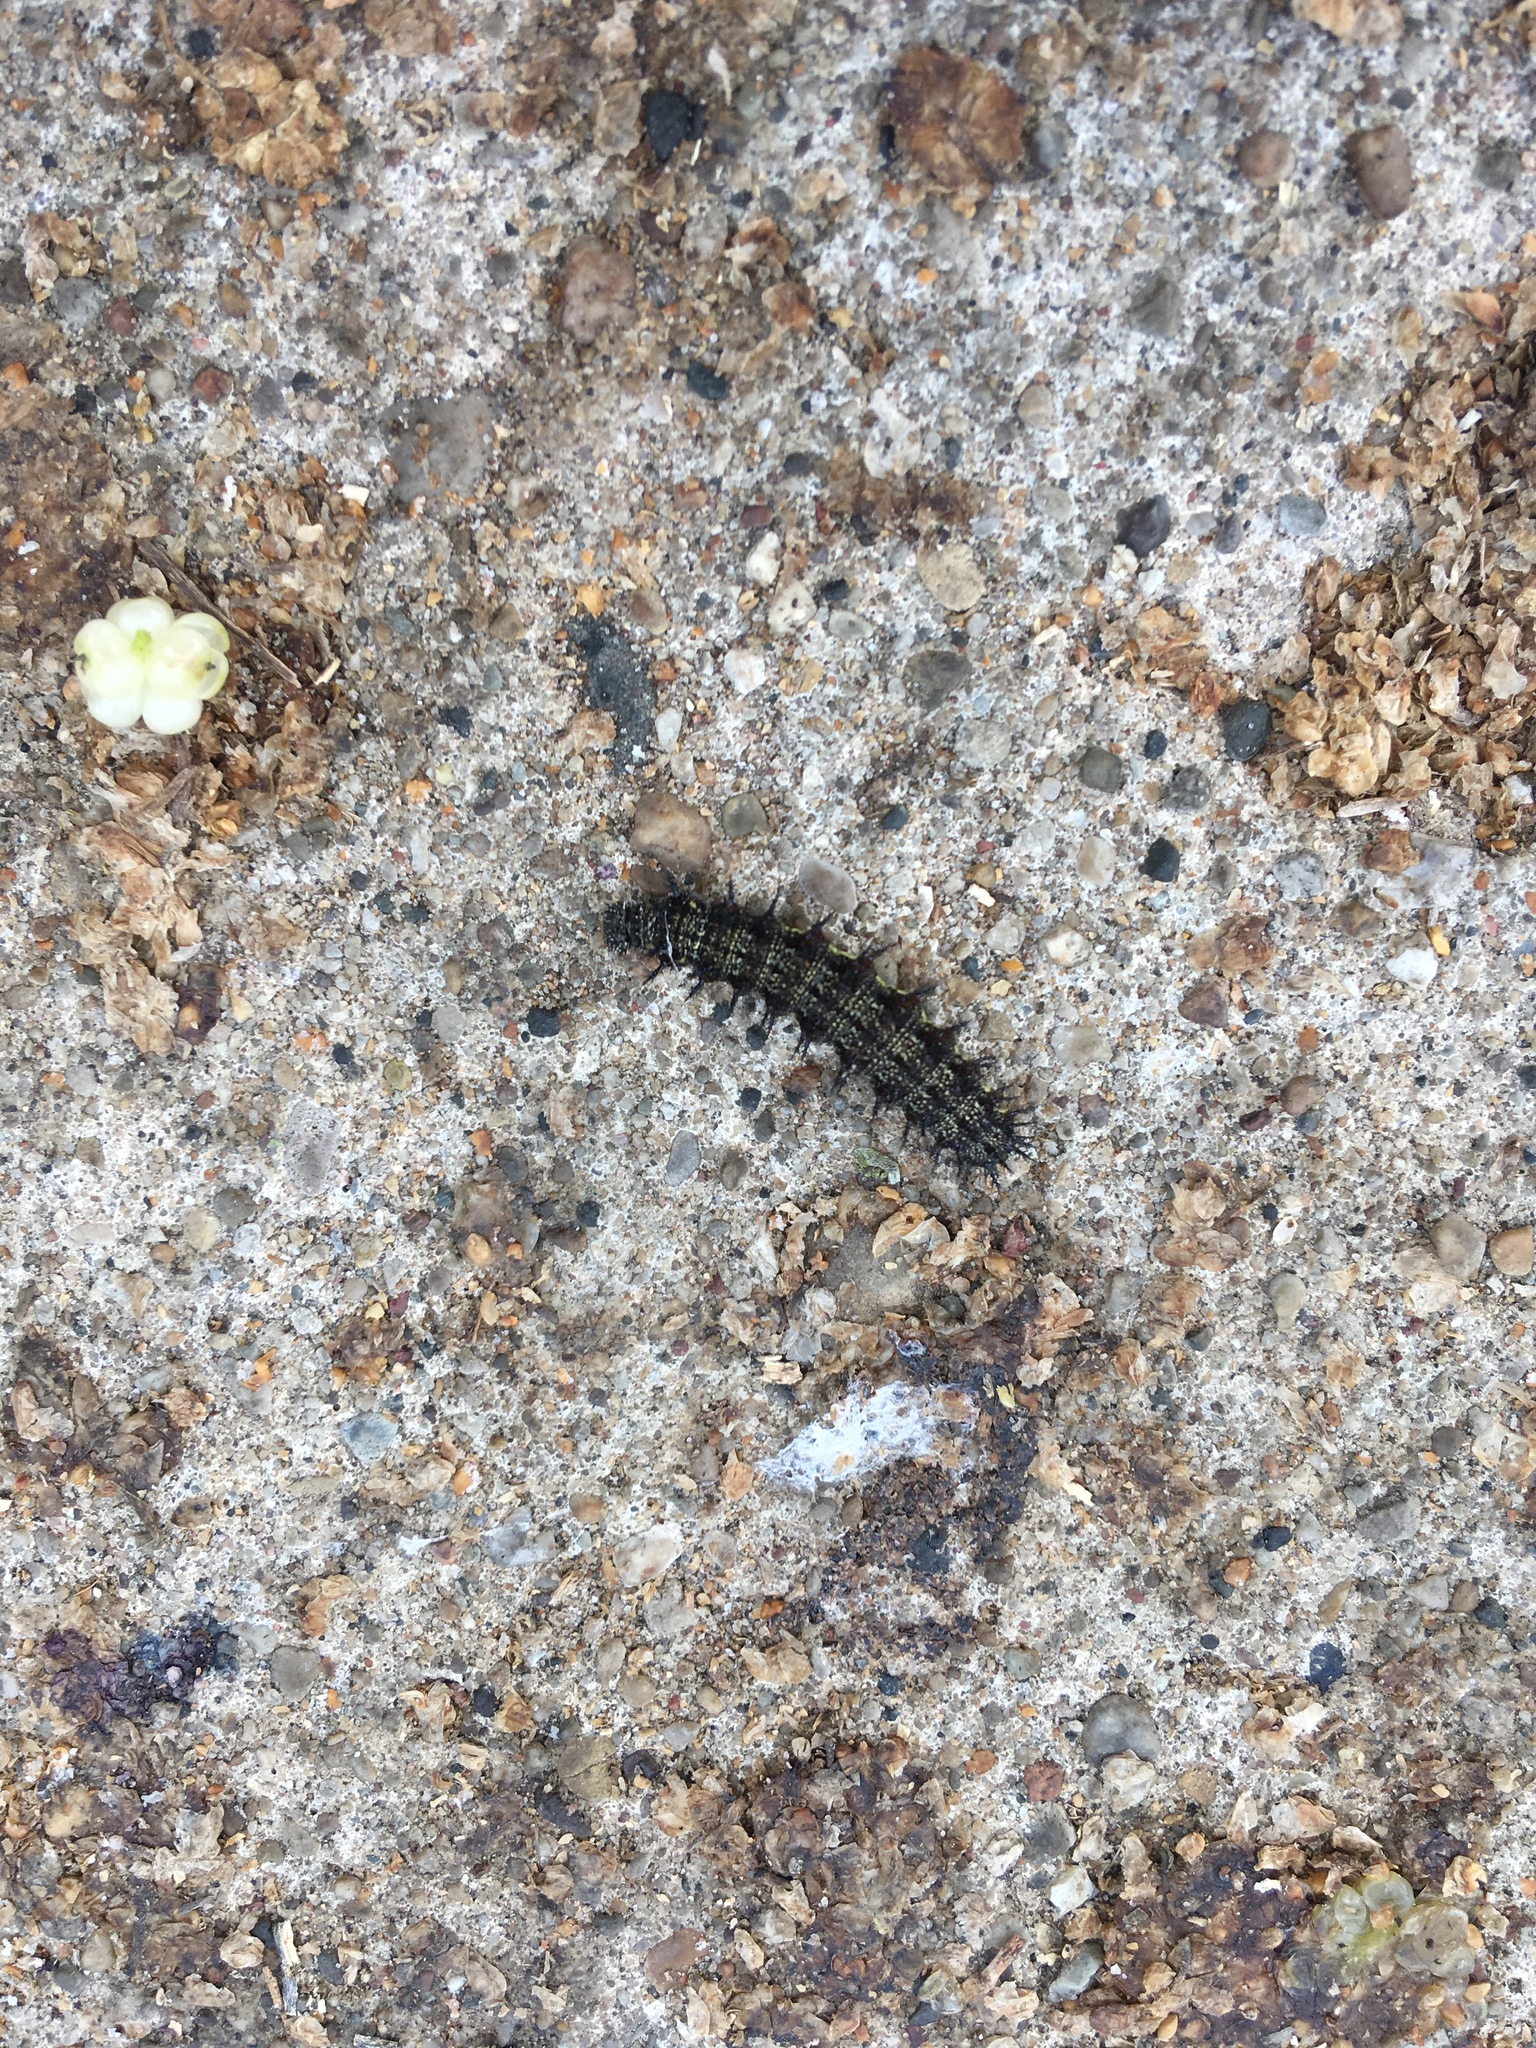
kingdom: Animalia
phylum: Arthropoda
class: Insecta
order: Lepidoptera
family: Nymphalidae
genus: Vanessa
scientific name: Vanessa atalanta
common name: Red admiral
